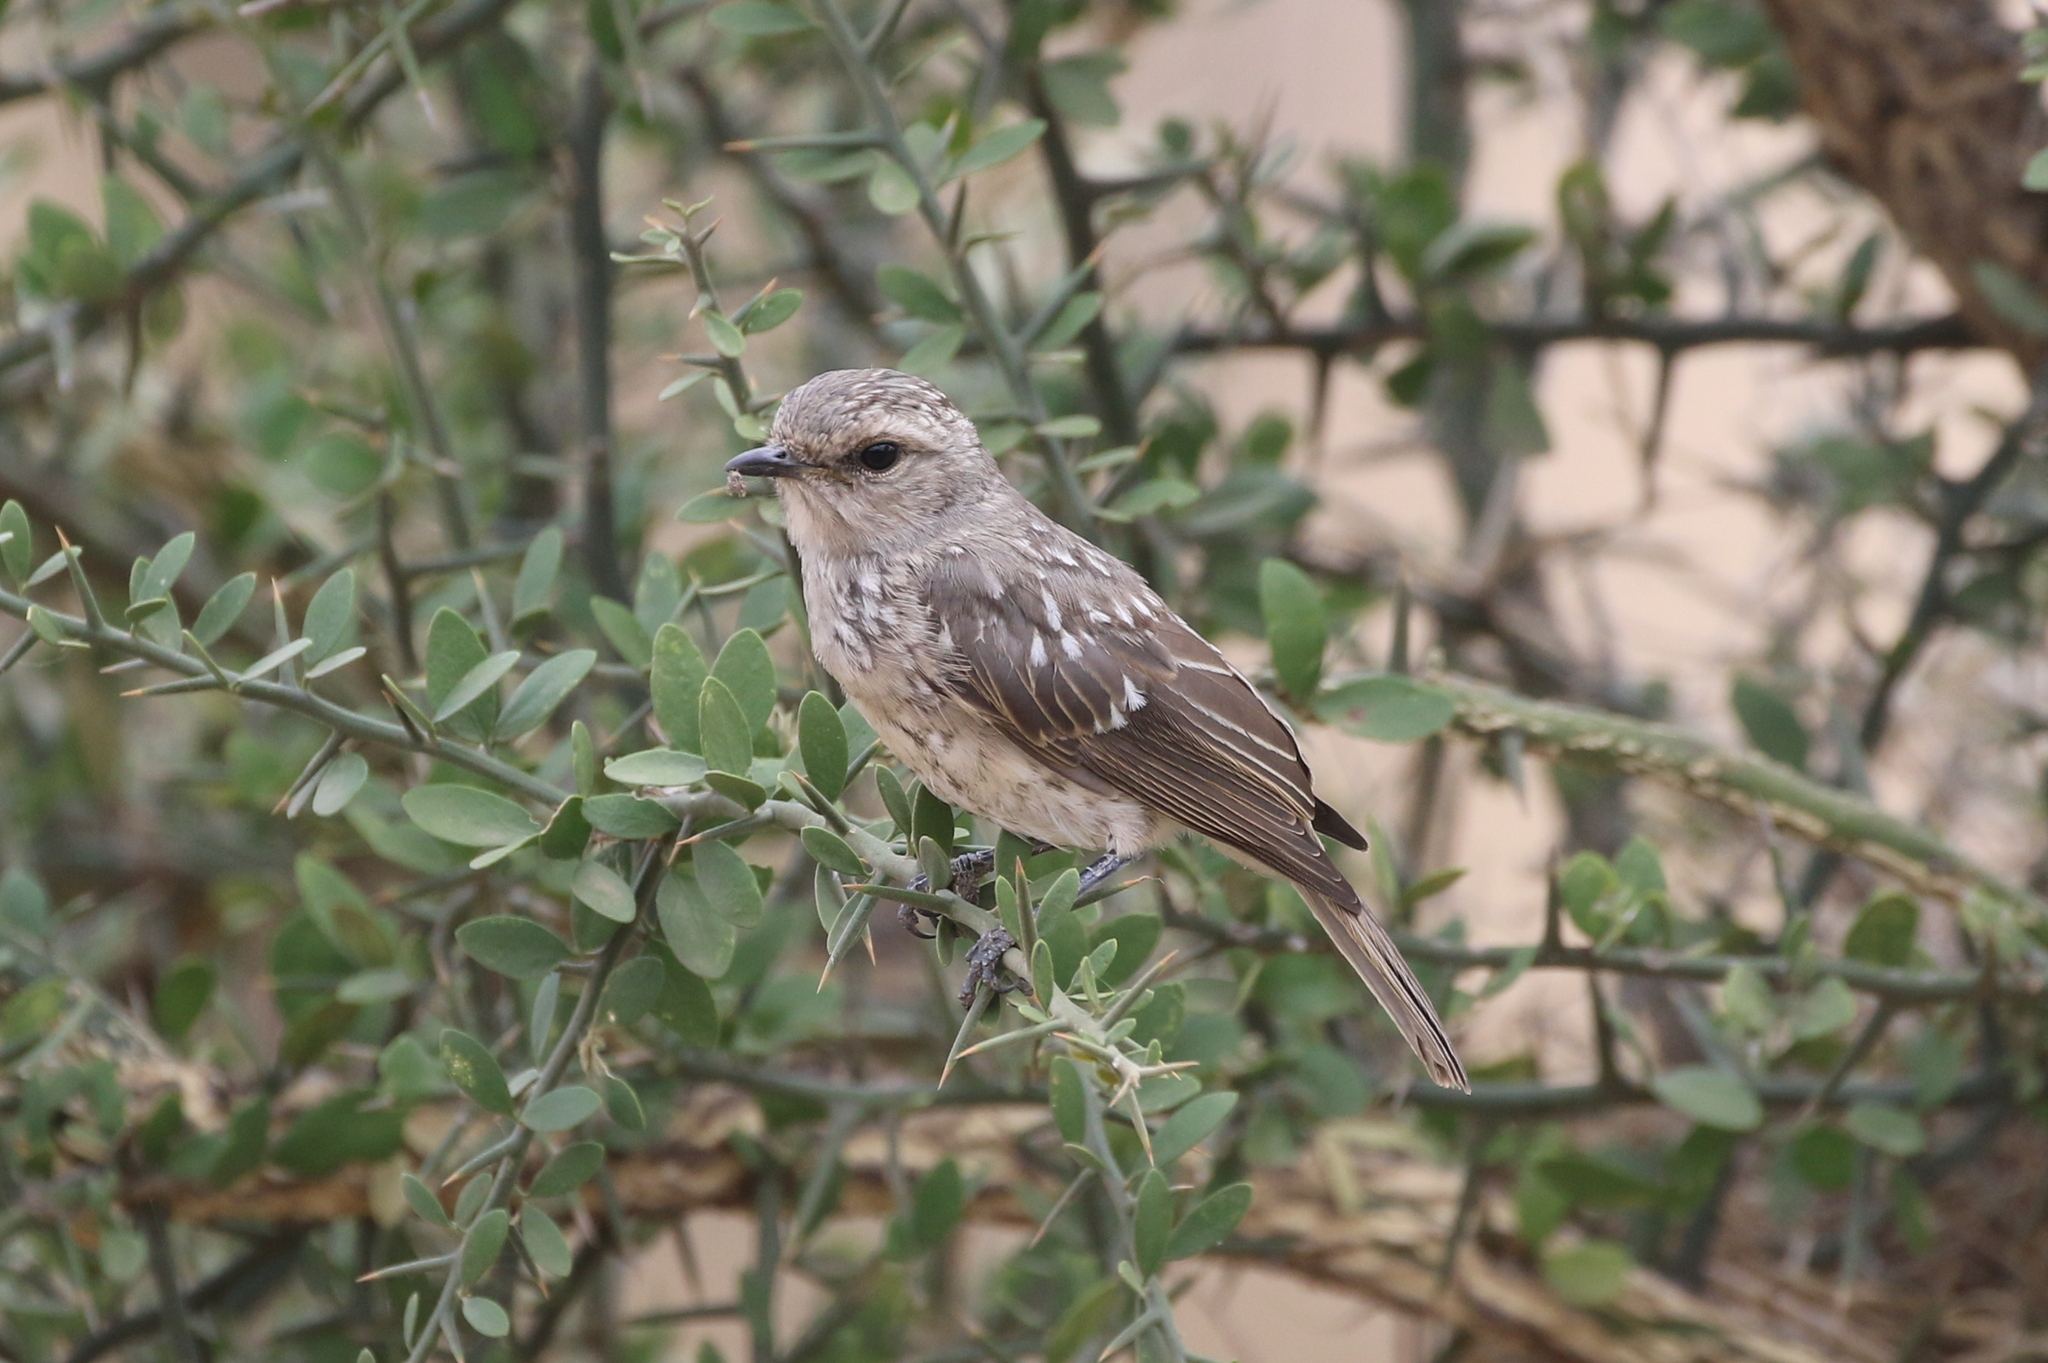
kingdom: Animalia
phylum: Chordata
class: Aves
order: Passeriformes
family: Muscicapidae
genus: Bradornis
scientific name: Bradornis microrhynchus
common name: African grey flycatcher
